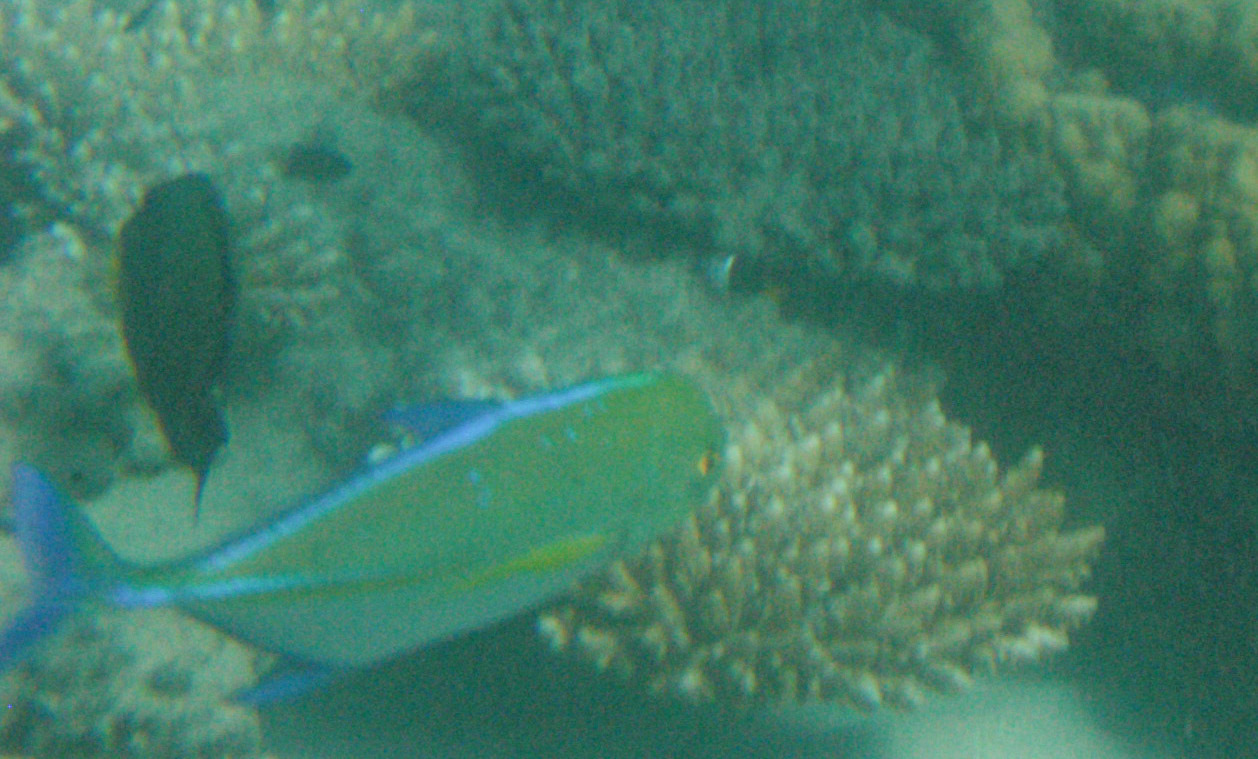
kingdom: Animalia
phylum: Chordata
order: Perciformes
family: Carangidae
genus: Caranx
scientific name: Caranx melampygus
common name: Bluefin trevally
